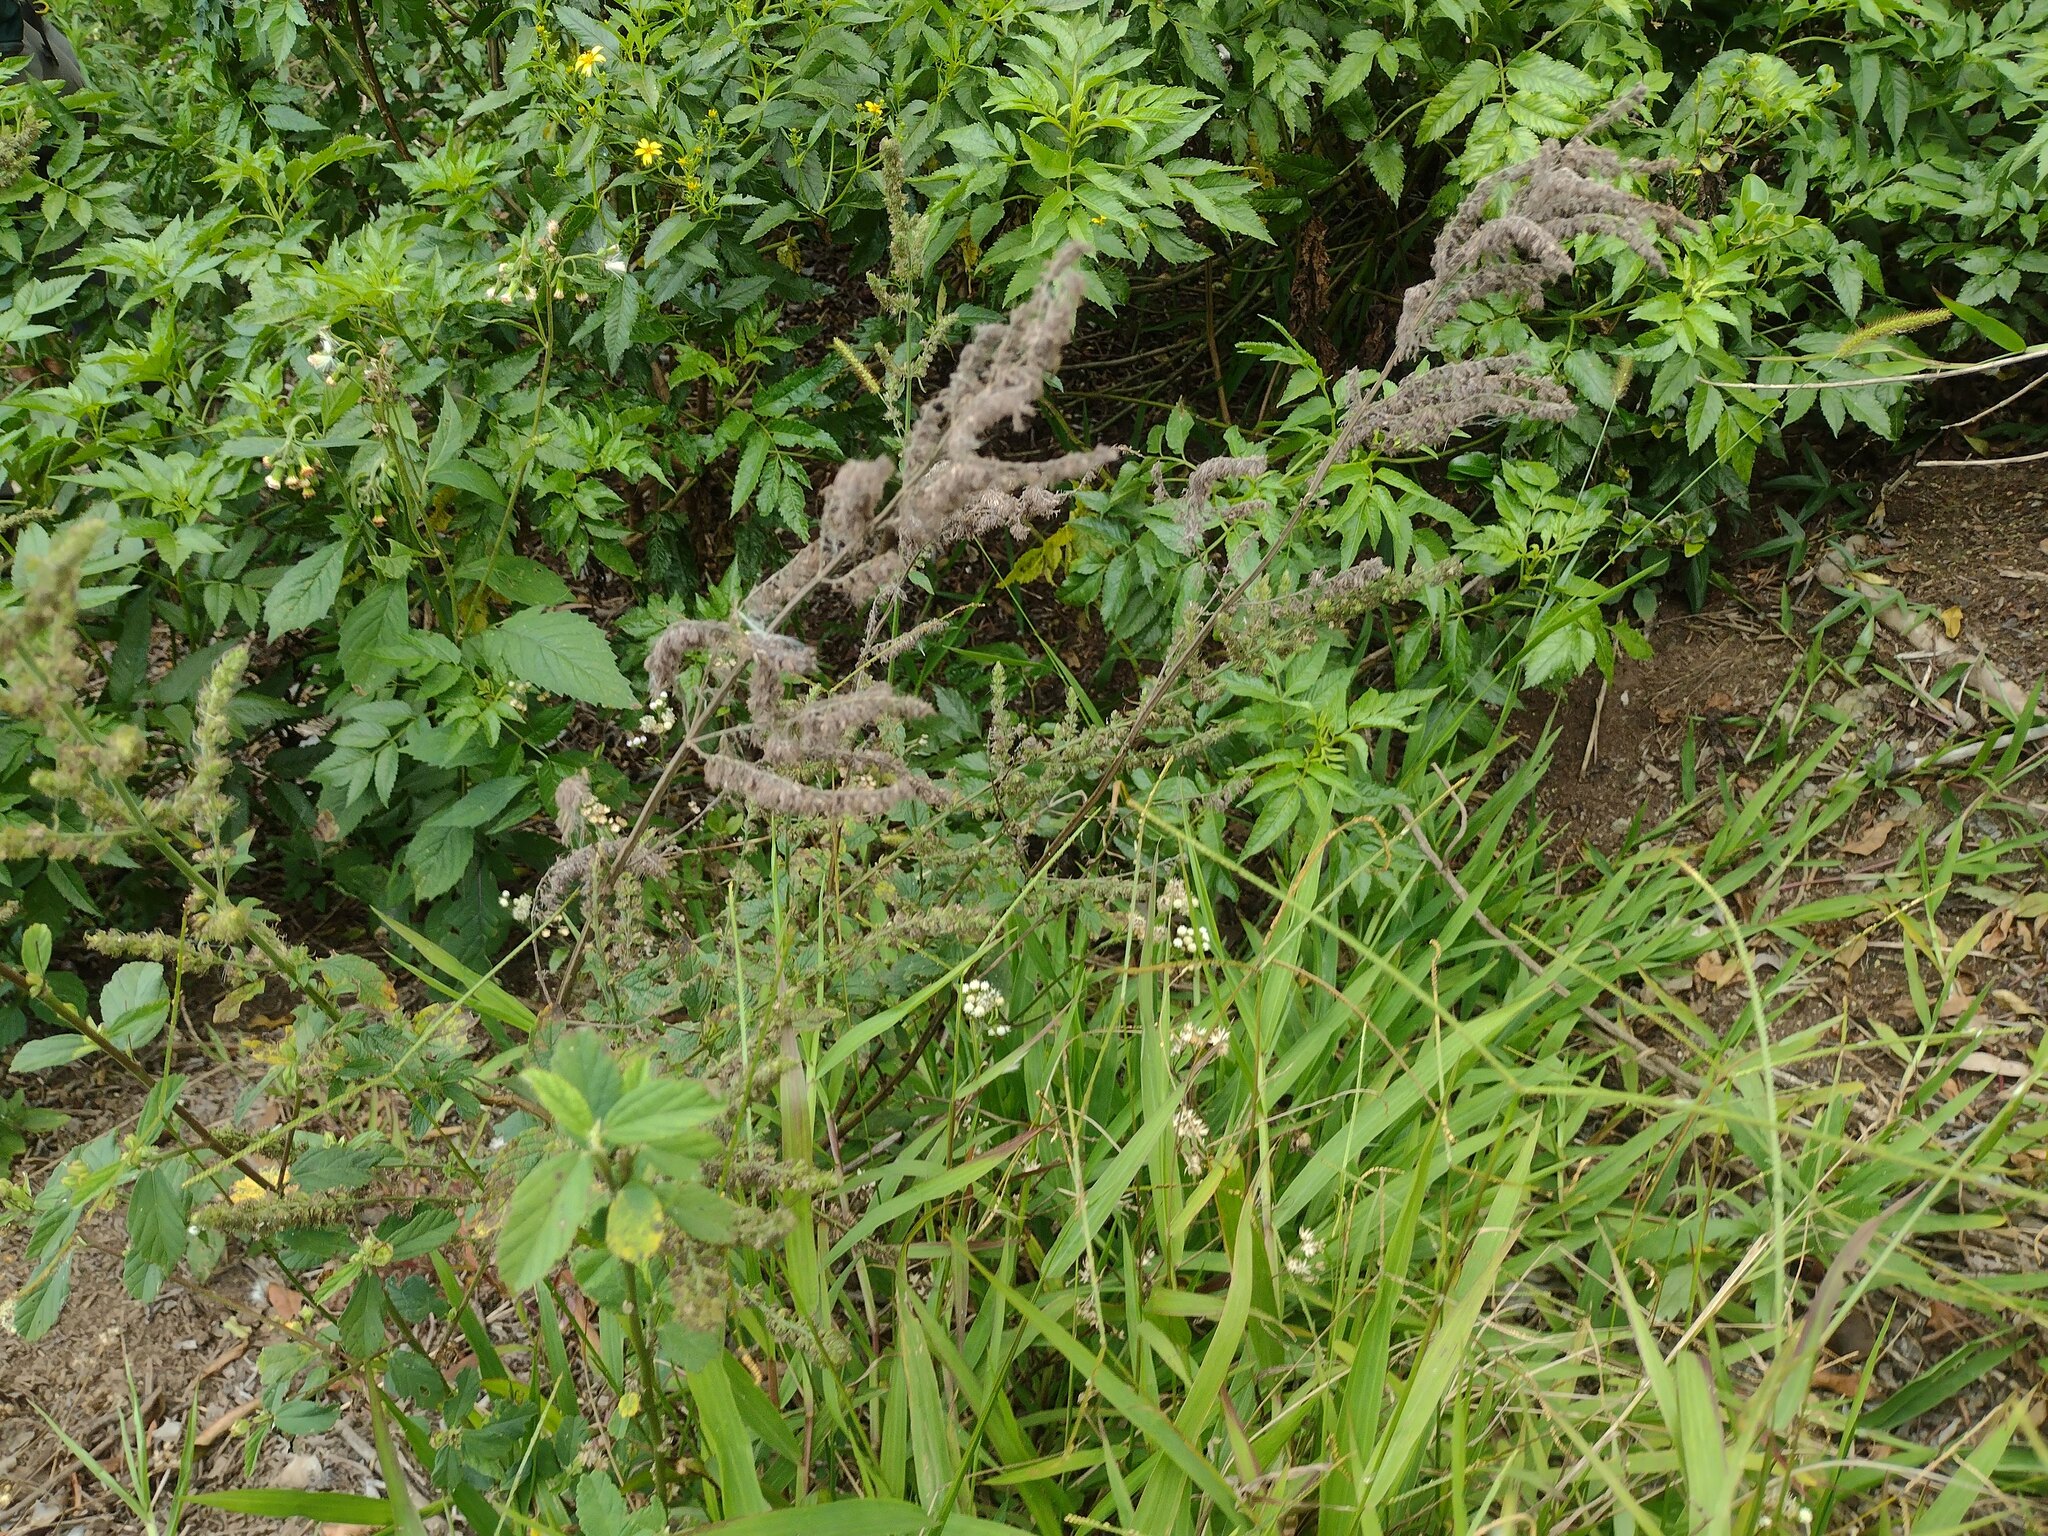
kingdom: Plantae
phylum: Tracheophyta
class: Magnoliopsida
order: Lamiales
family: Lamiaceae
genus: Mesosphaerum
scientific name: Mesosphaerum pectinatum
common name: Comb hyptis
